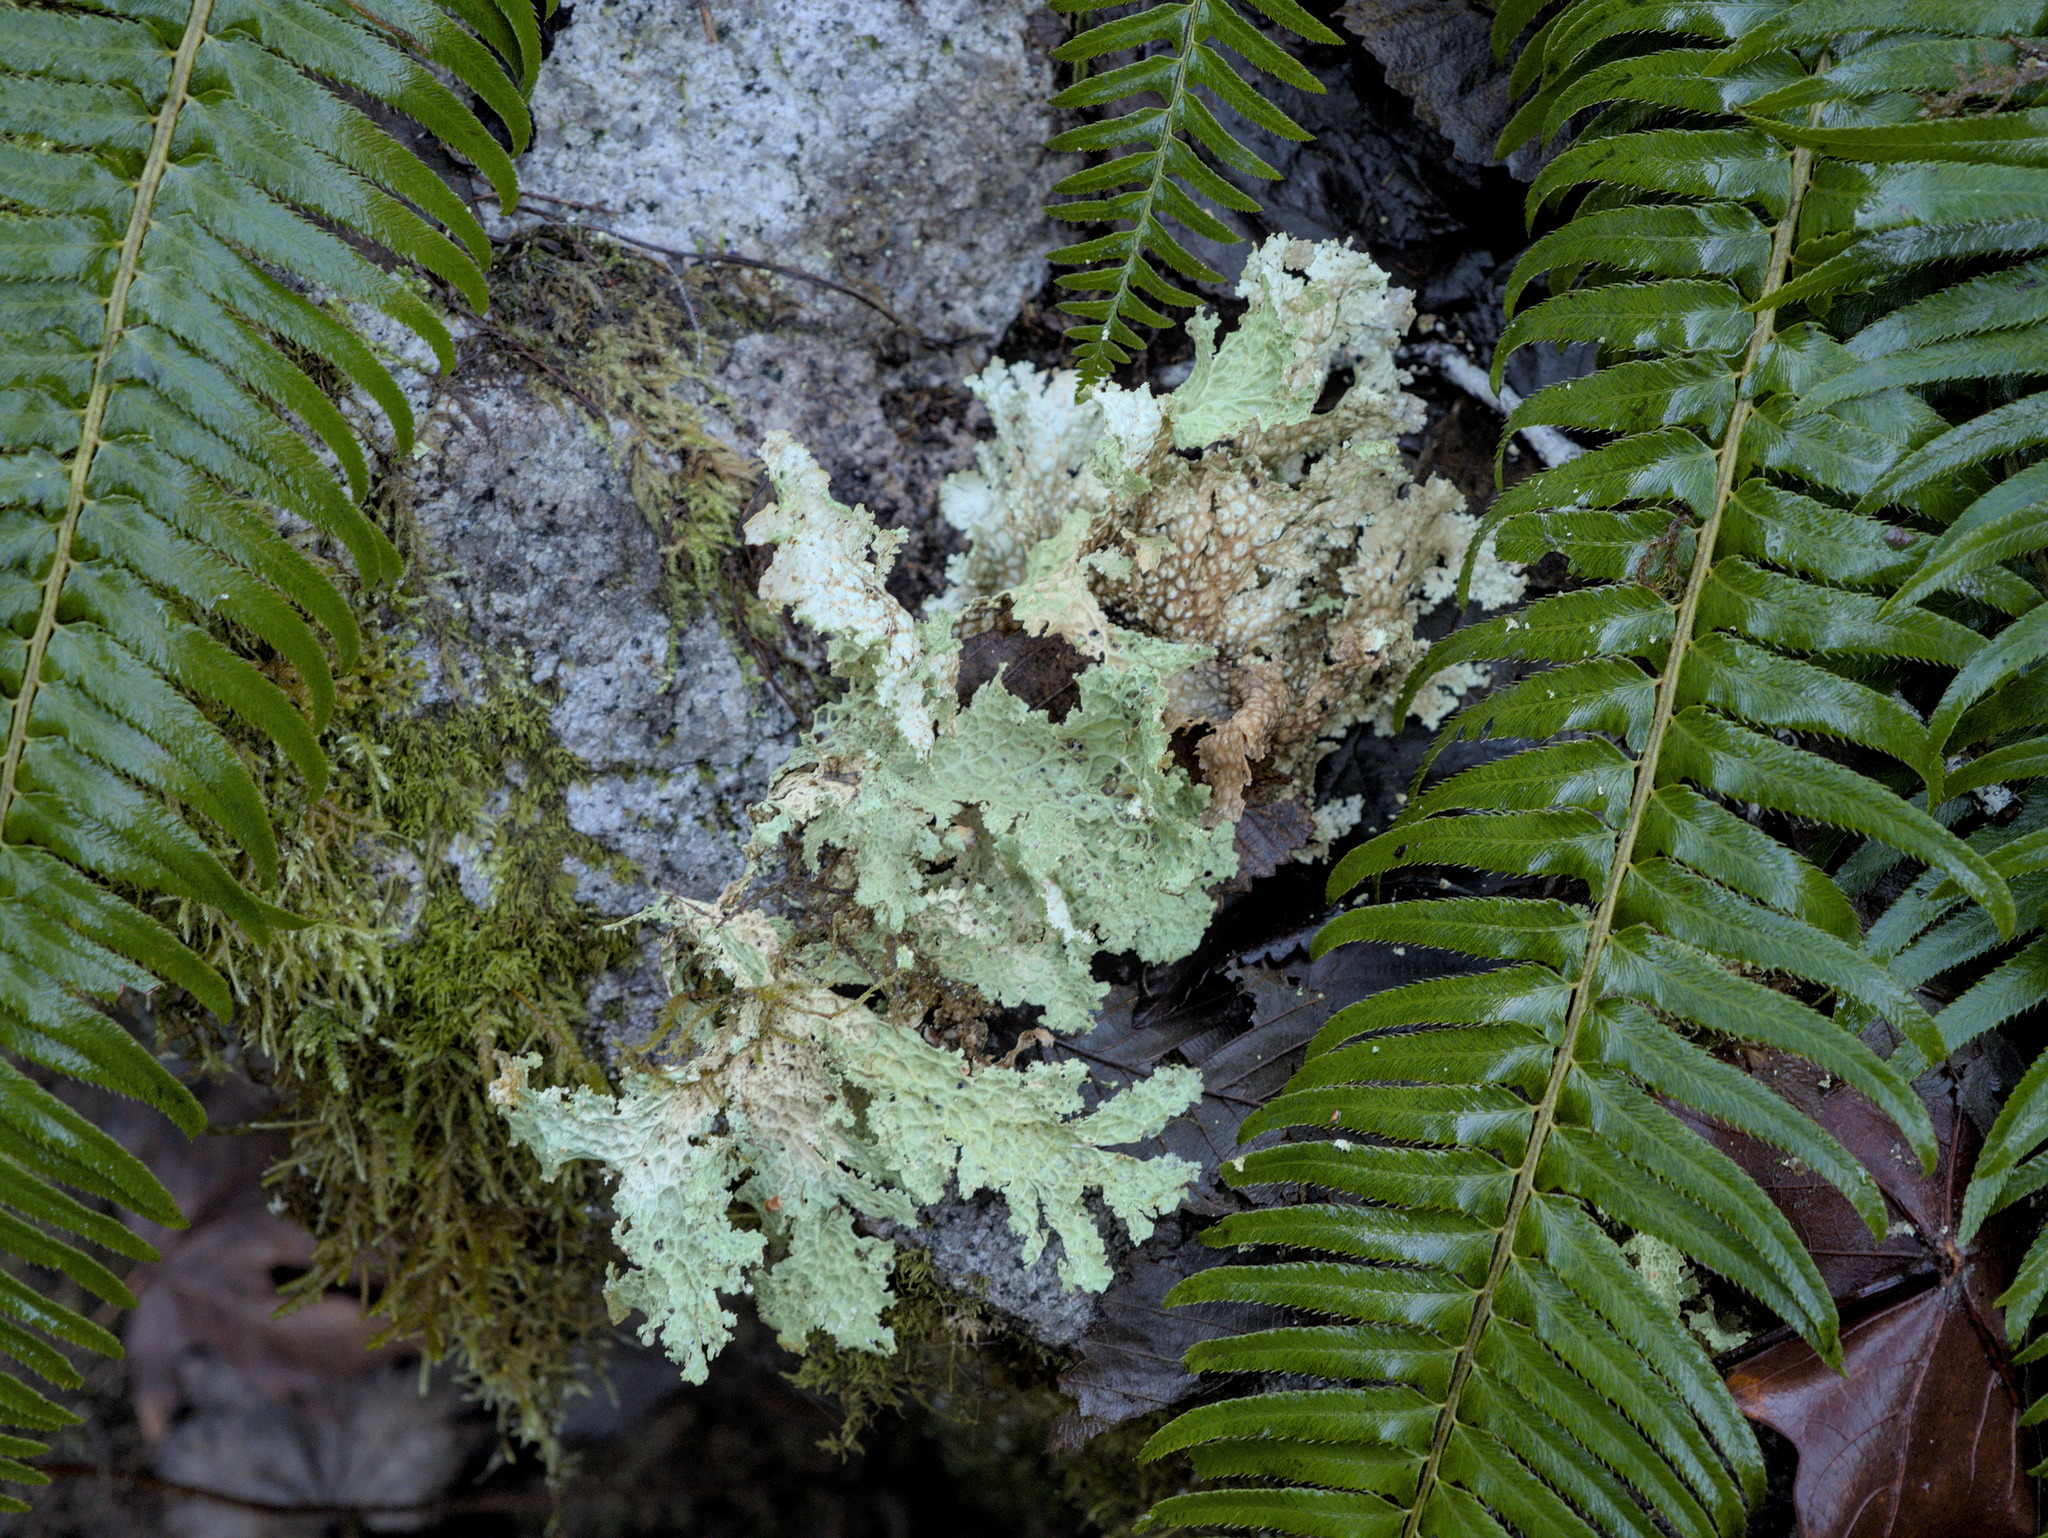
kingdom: Fungi
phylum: Ascomycota
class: Lecanoromycetes
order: Peltigerales
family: Lobariaceae
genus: Lobaria
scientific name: Lobaria oregana
